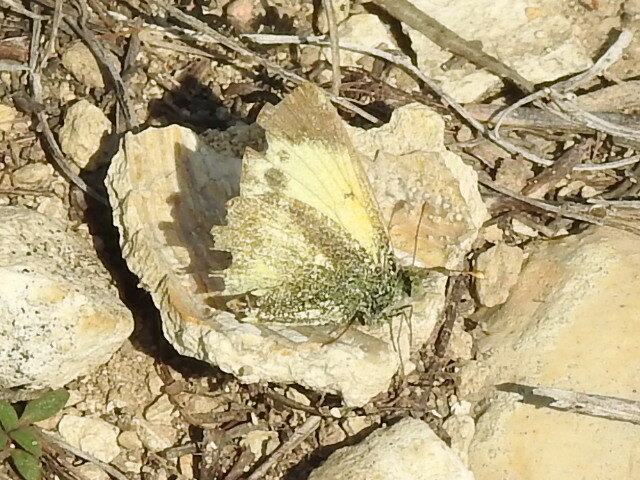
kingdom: Animalia
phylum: Arthropoda
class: Insecta
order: Lepidoptera
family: Pieridae
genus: Nathalis
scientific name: Nathalis iole
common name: Dainty sulphur
